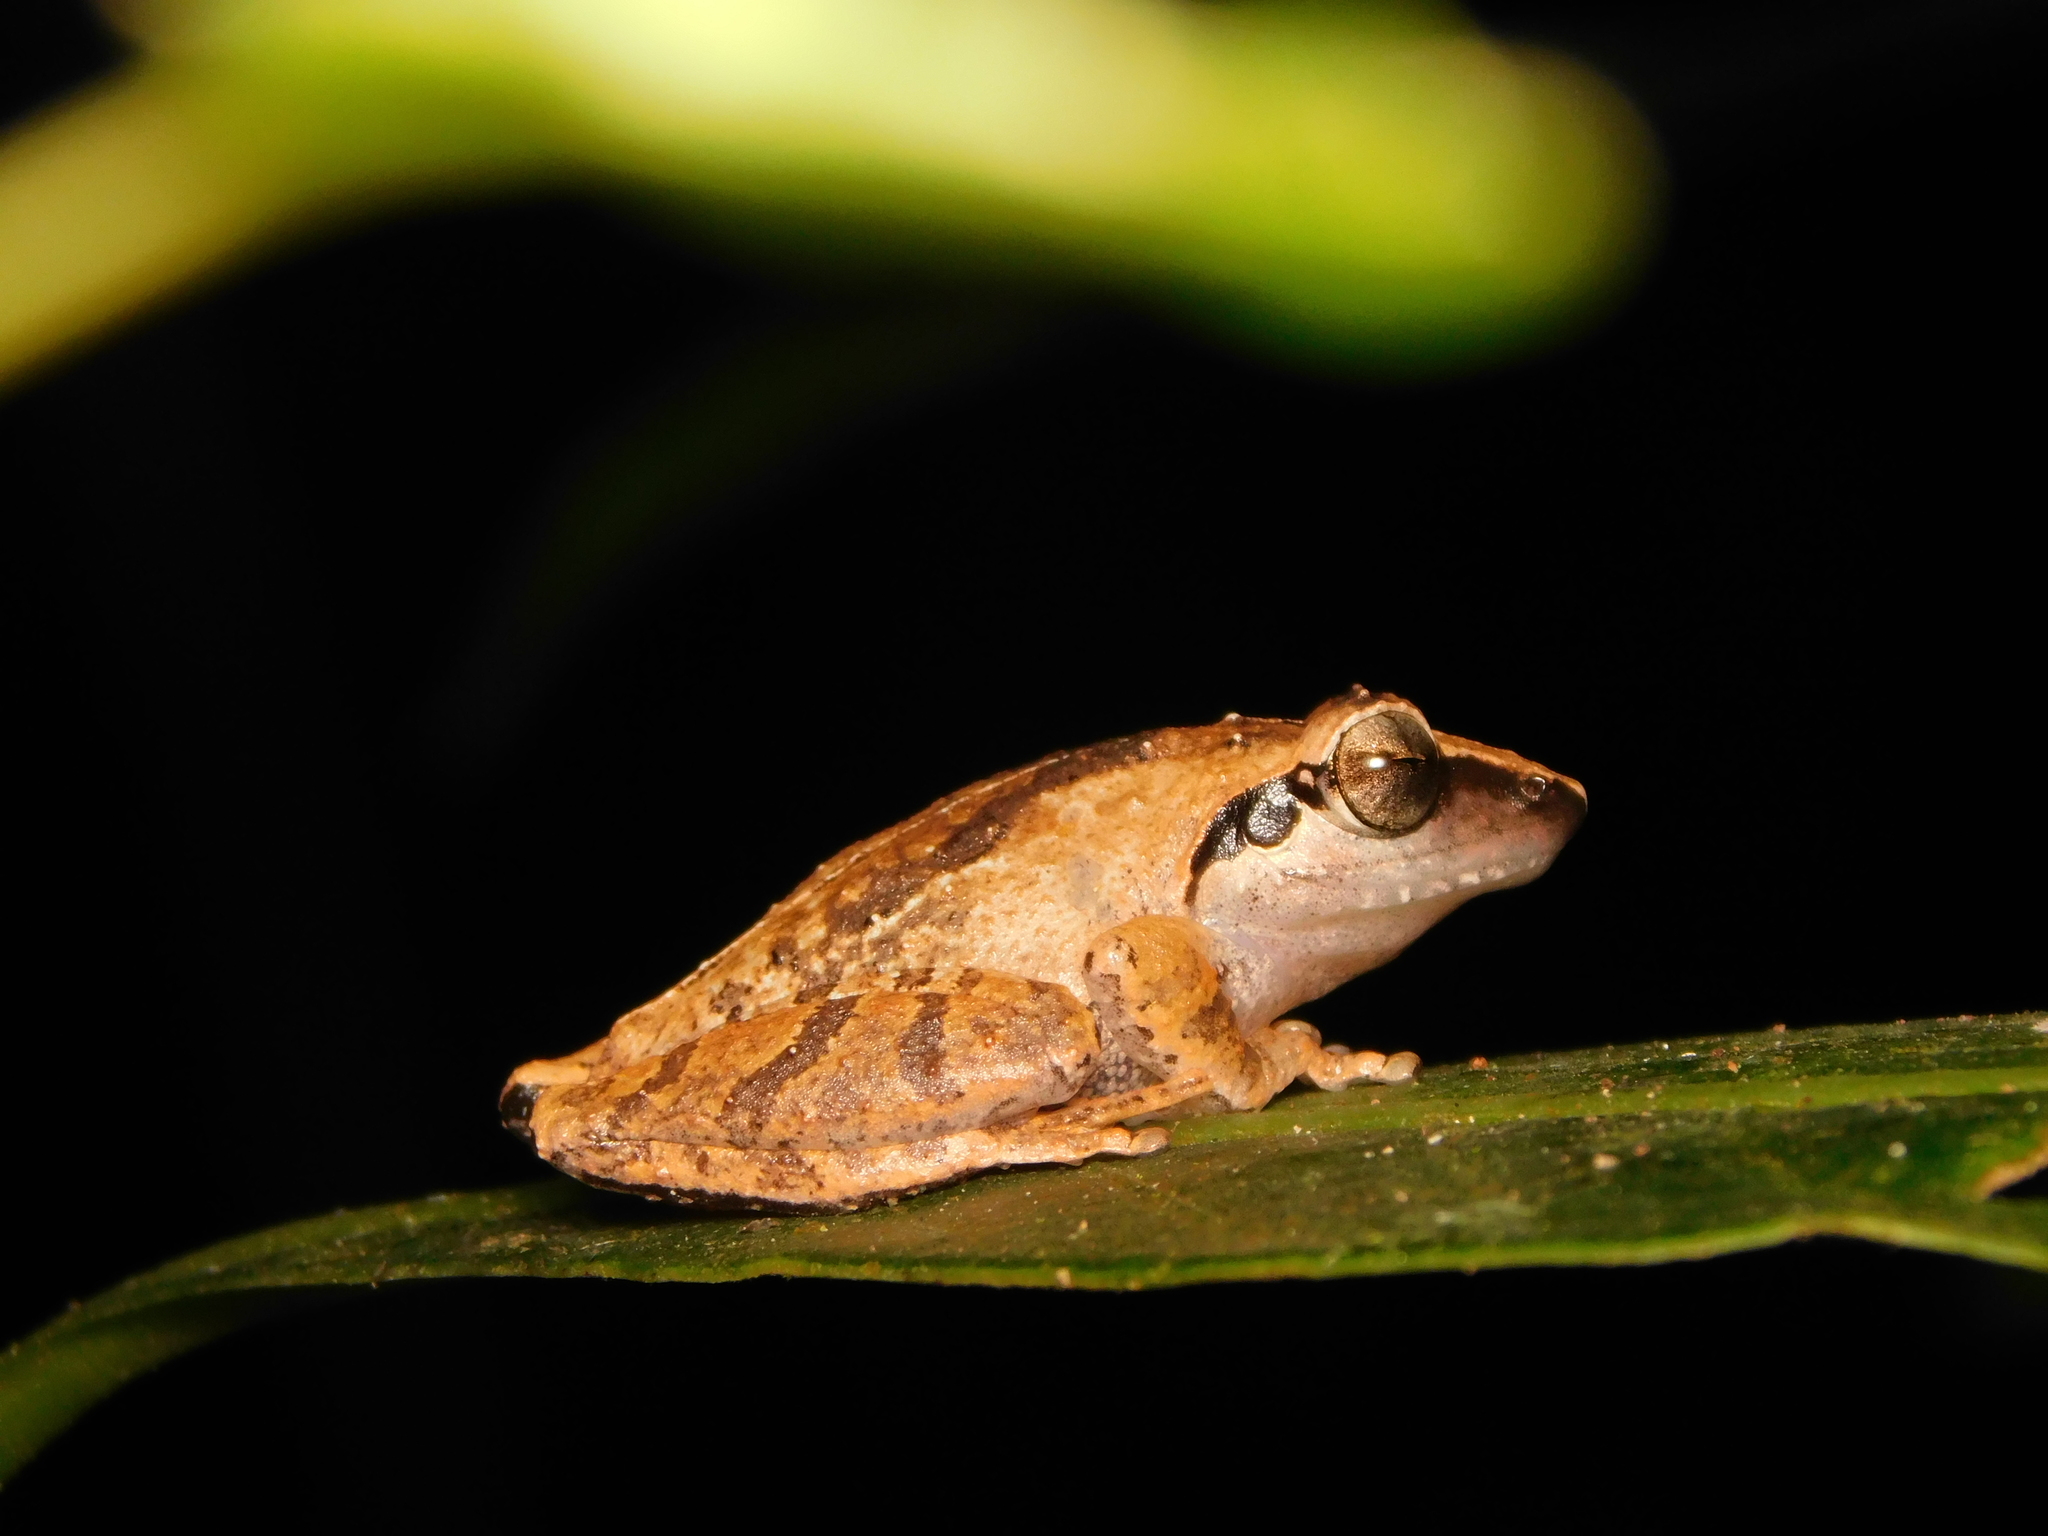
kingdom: Animalia
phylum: Chordata
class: Amphibia
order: Anura
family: Rhacophoridae
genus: Pseudophilautus
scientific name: Pseudophilautus wynaadensis
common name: Dark-eared bush frog
